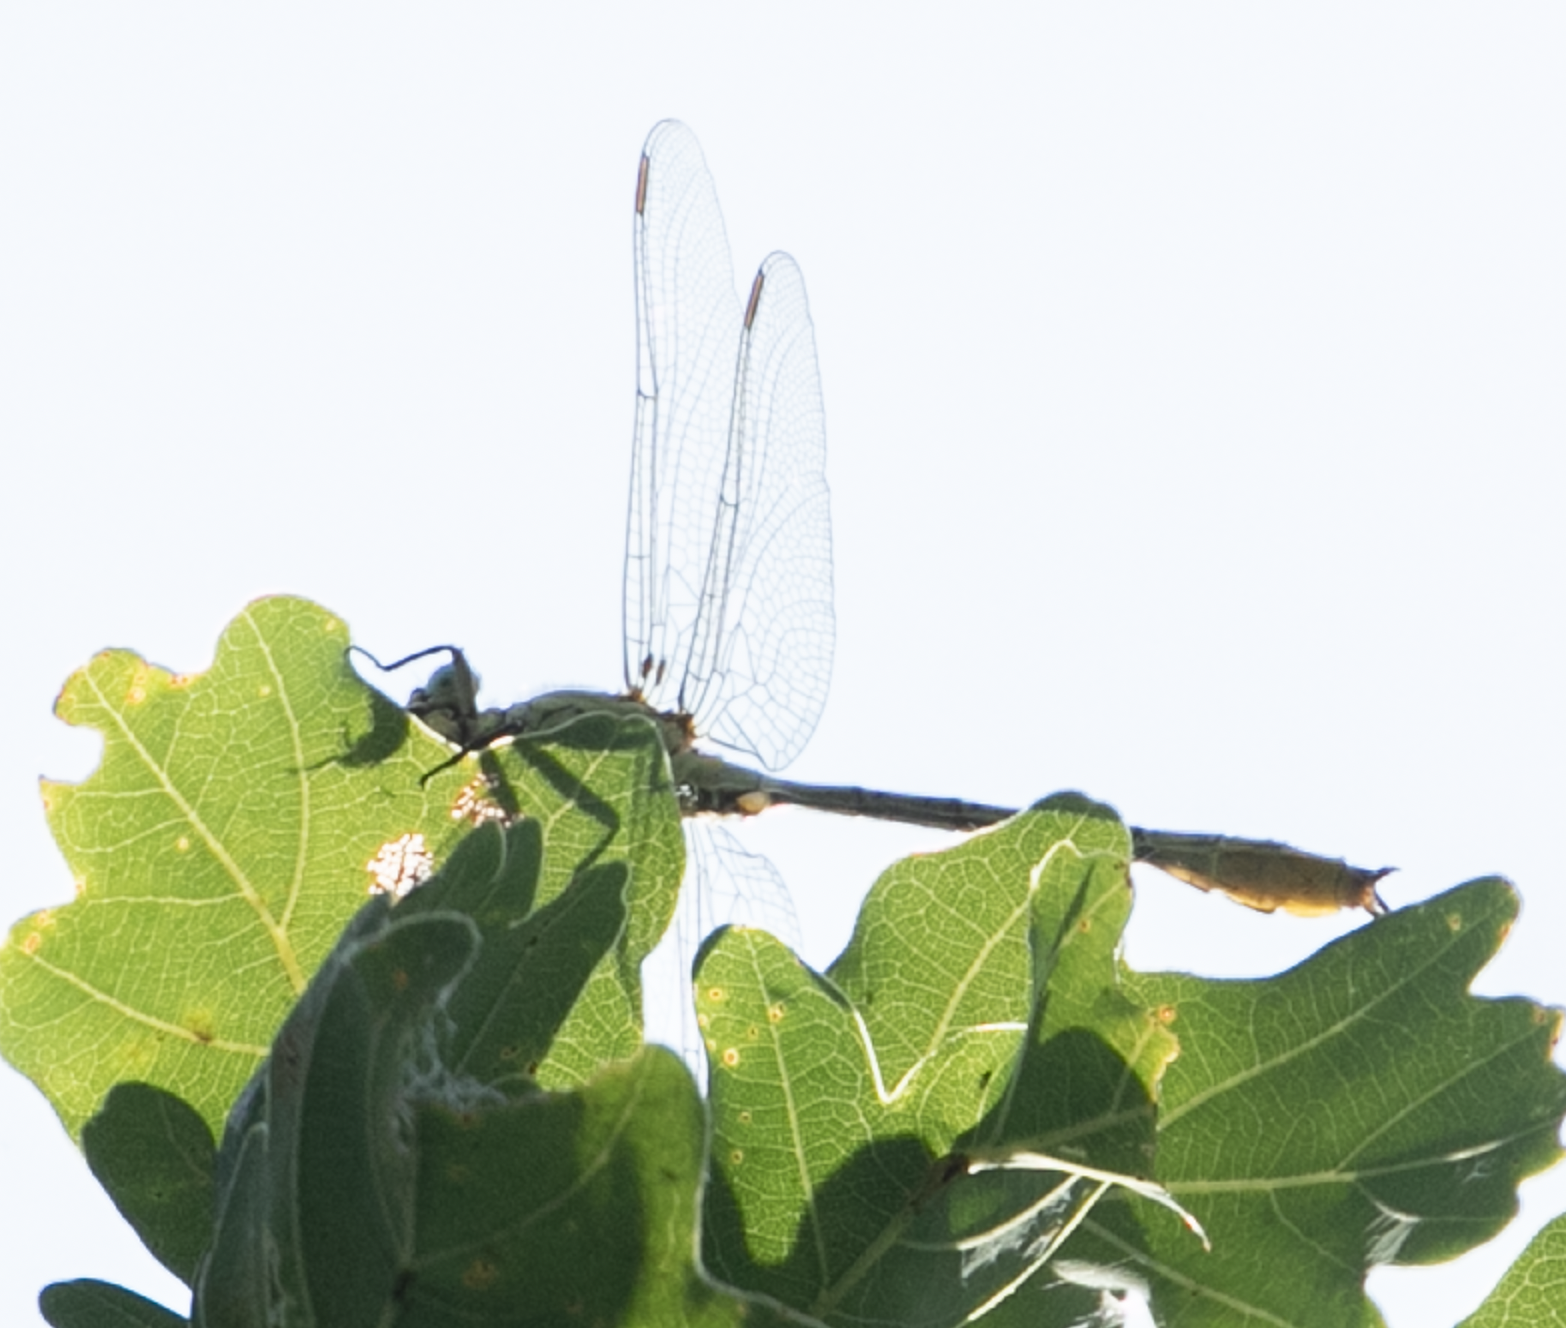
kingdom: Animalia
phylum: Arthropoda
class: Insecta
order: Odonata
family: Gomphidae
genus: Stylurus
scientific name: Stylurus flavipes
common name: River clubtail
